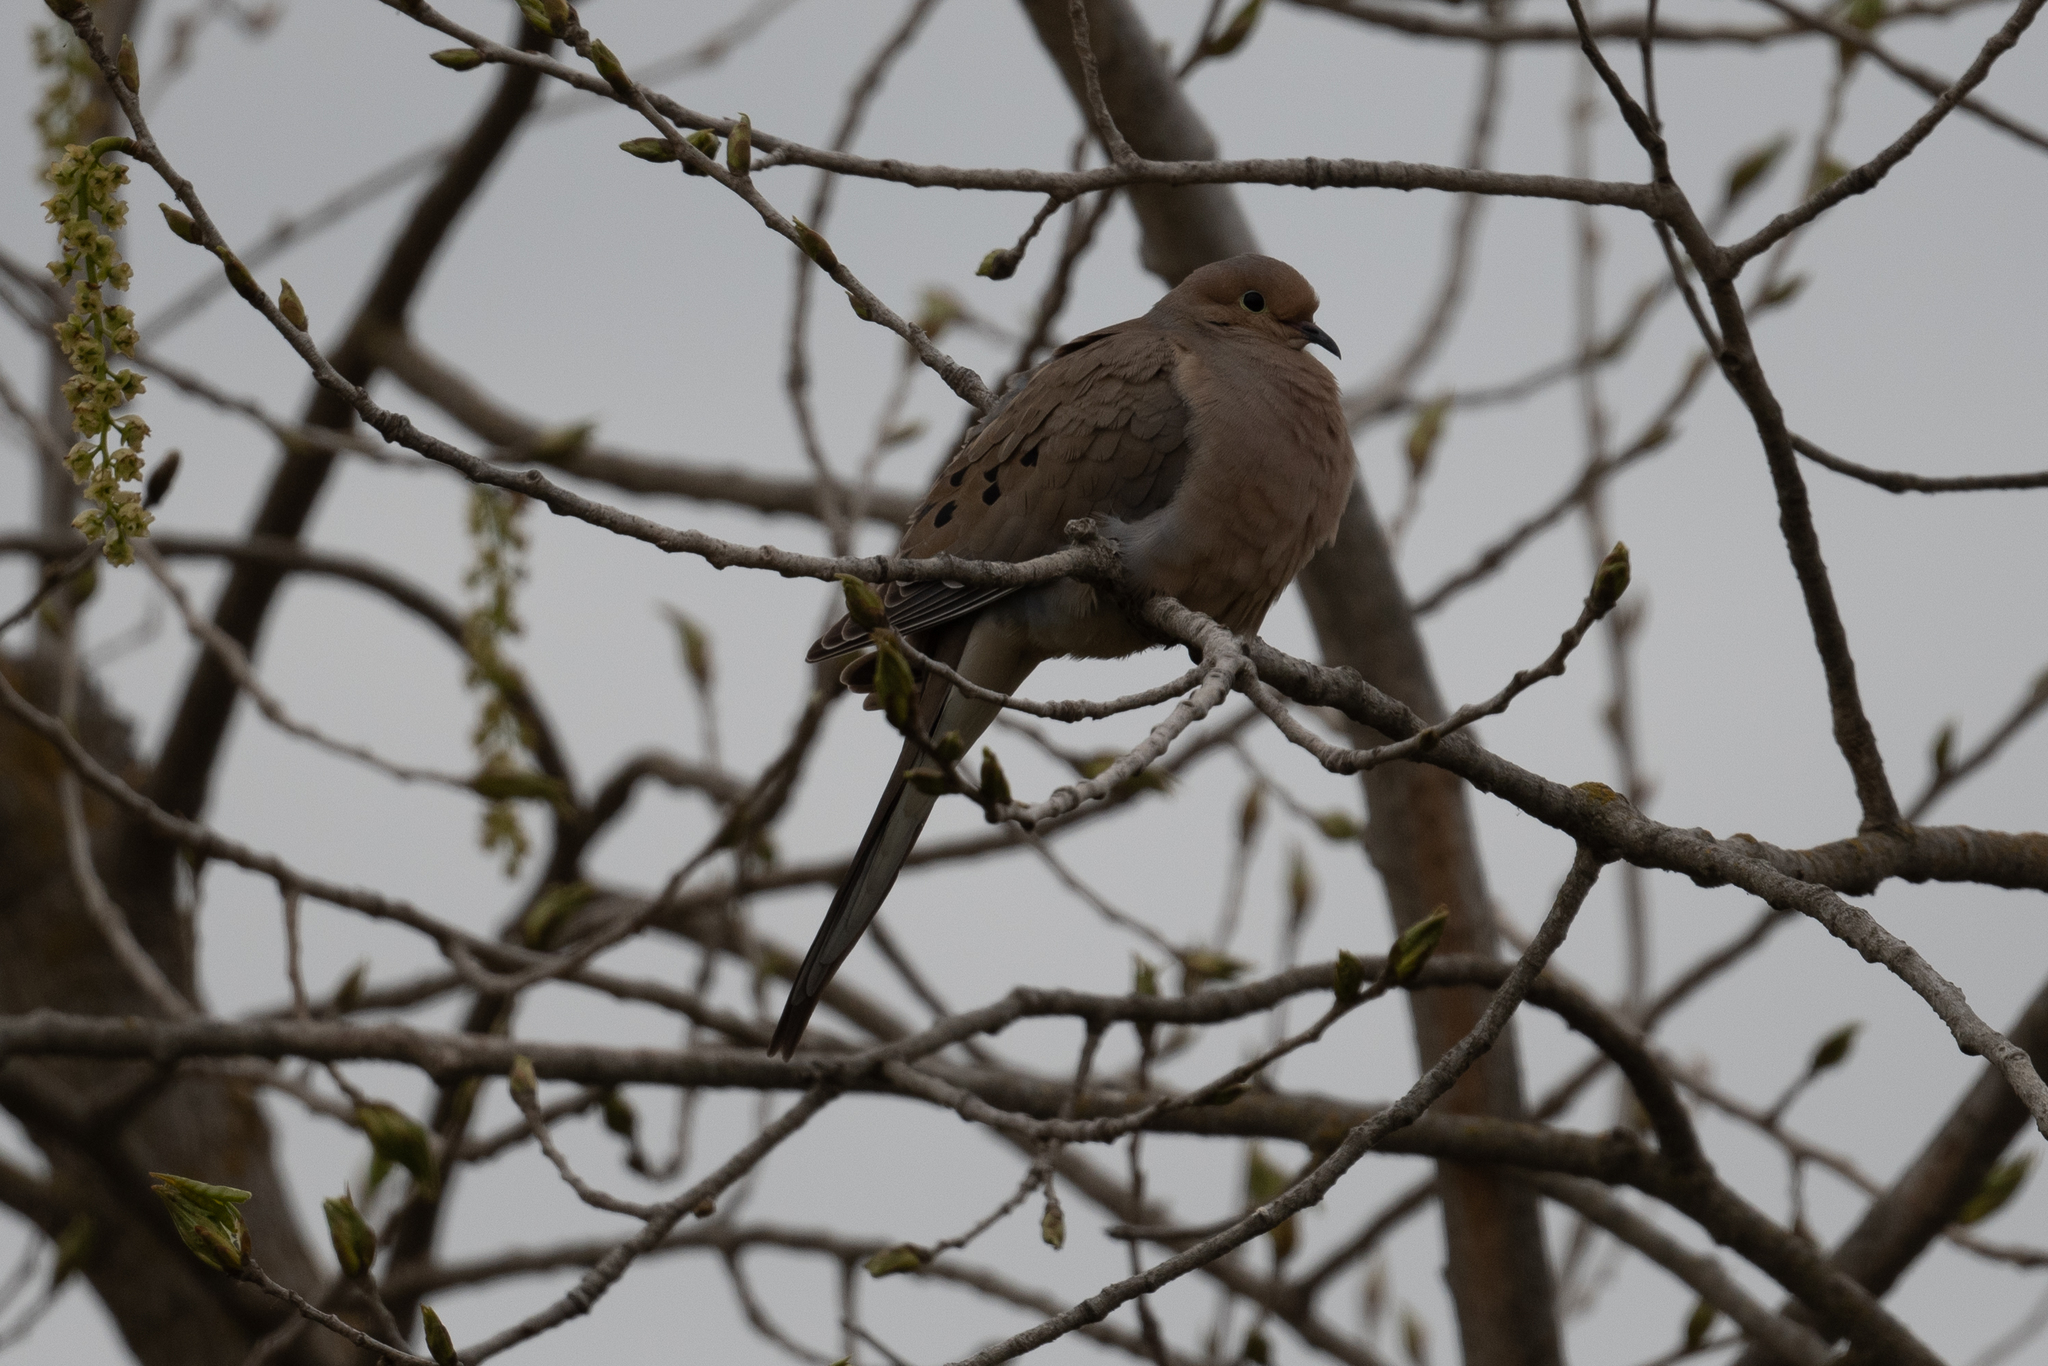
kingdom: Animalia
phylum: Chordata
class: Aves
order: Columbiformes
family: Columbidae
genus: Zenaida
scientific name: Zenaida macroura
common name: Mourning dove
